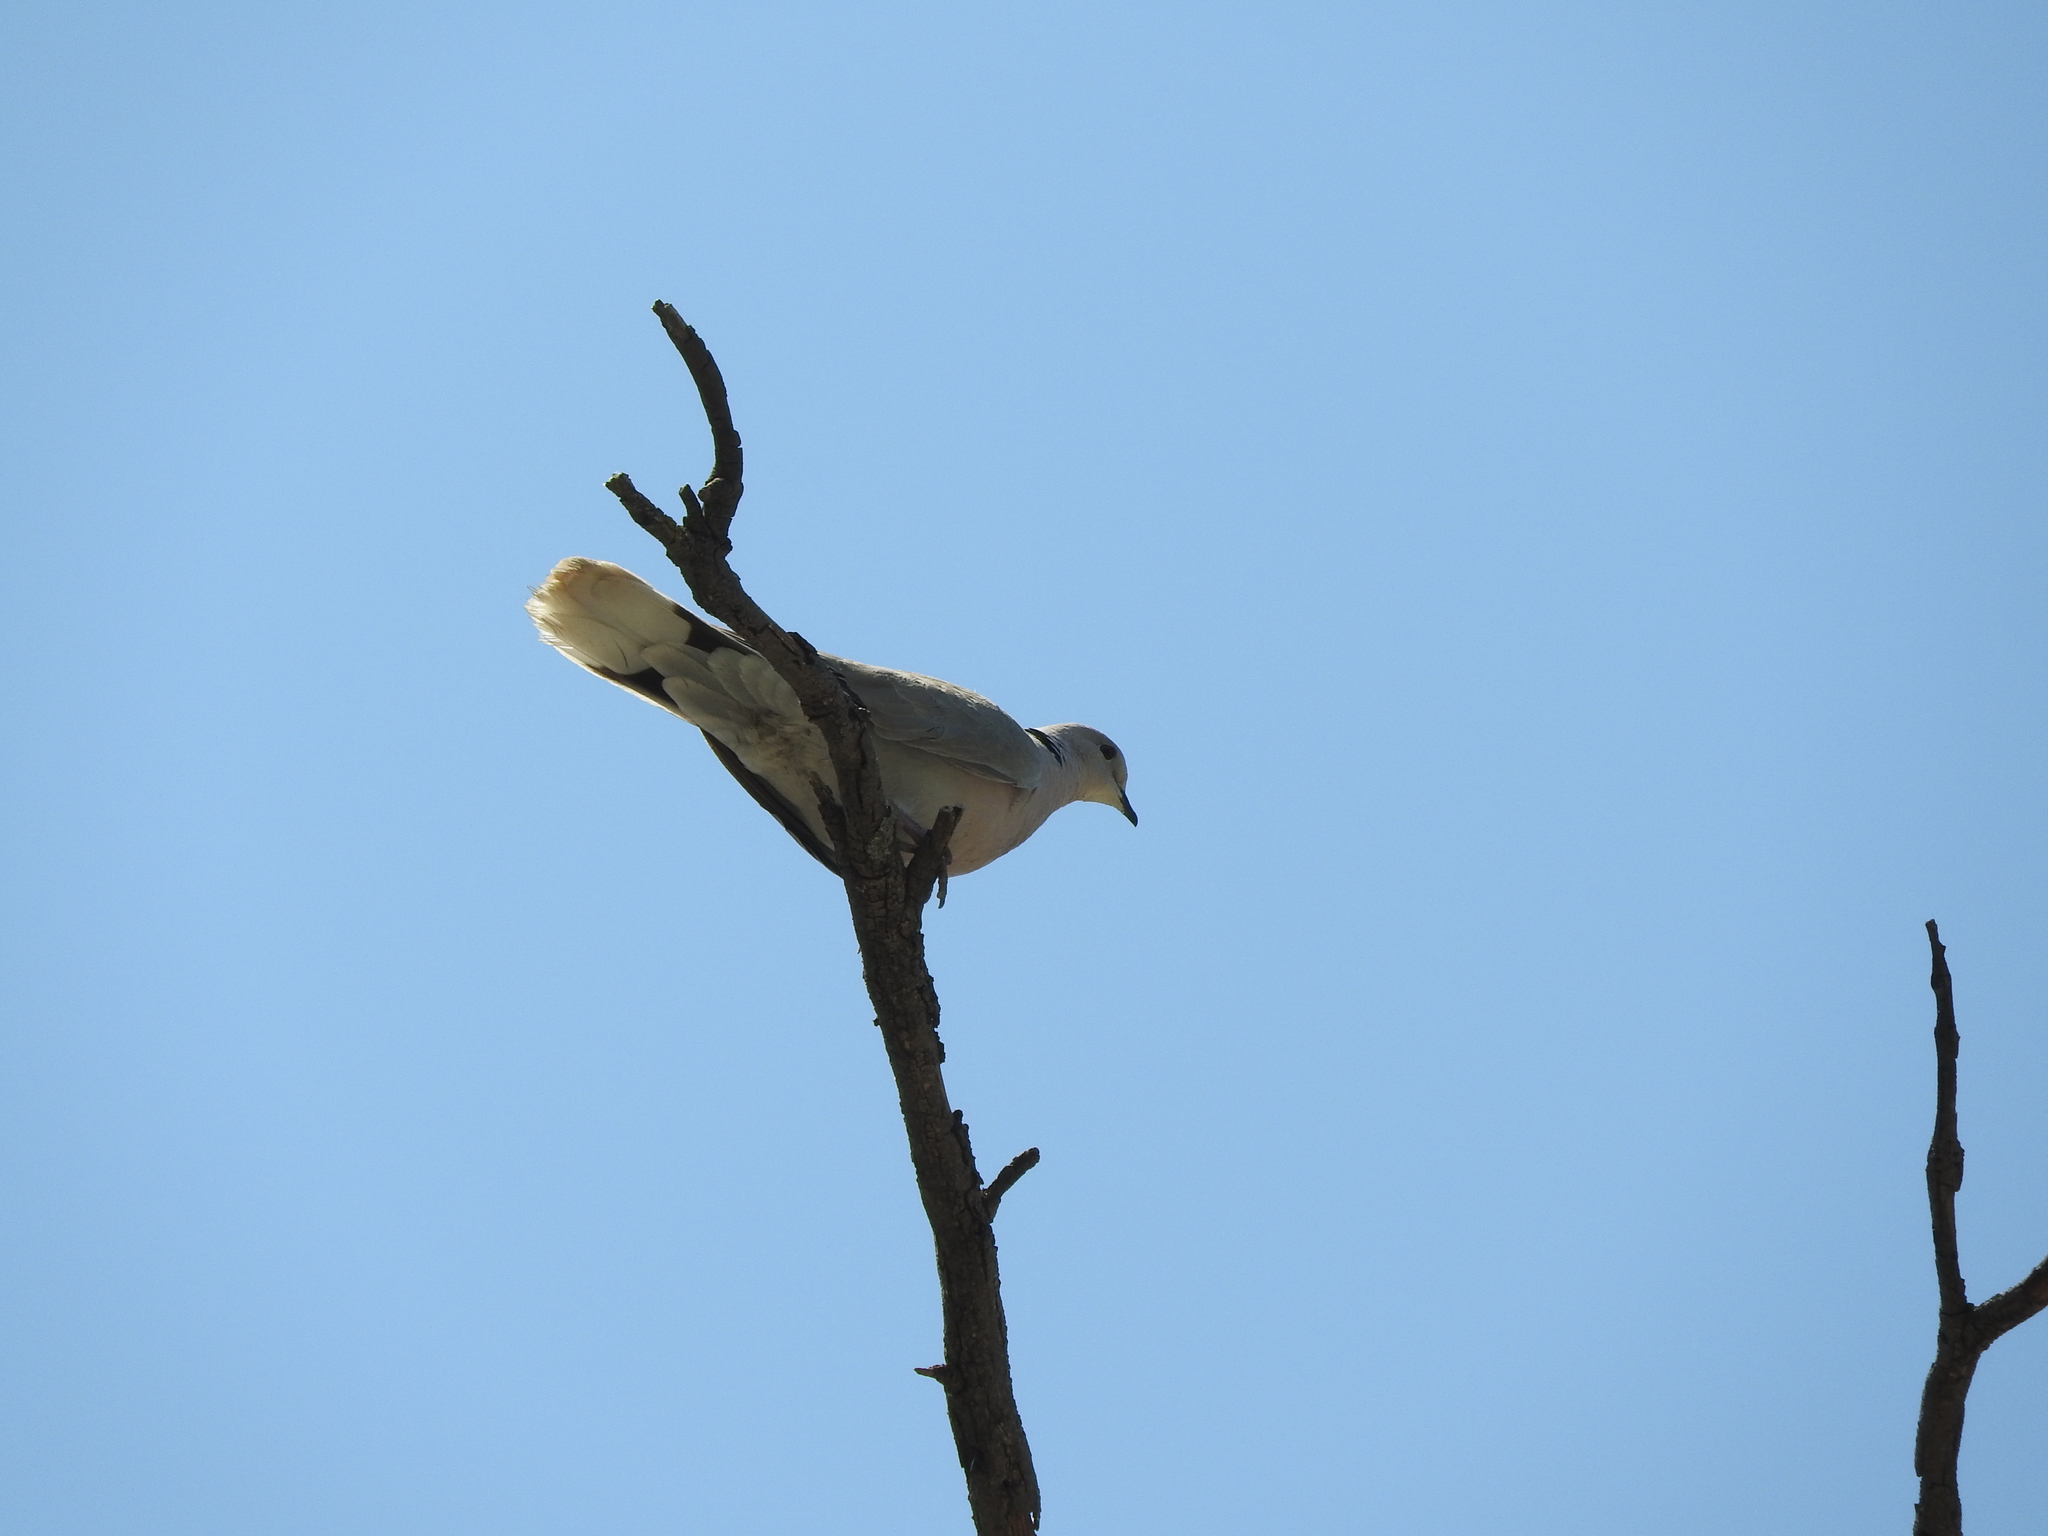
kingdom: Animalia
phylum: Chordata
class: Aves
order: Columbiformes
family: Columbidae
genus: Streptopelia
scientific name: Streptopelia decaocto
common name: Eurasian collared dove
